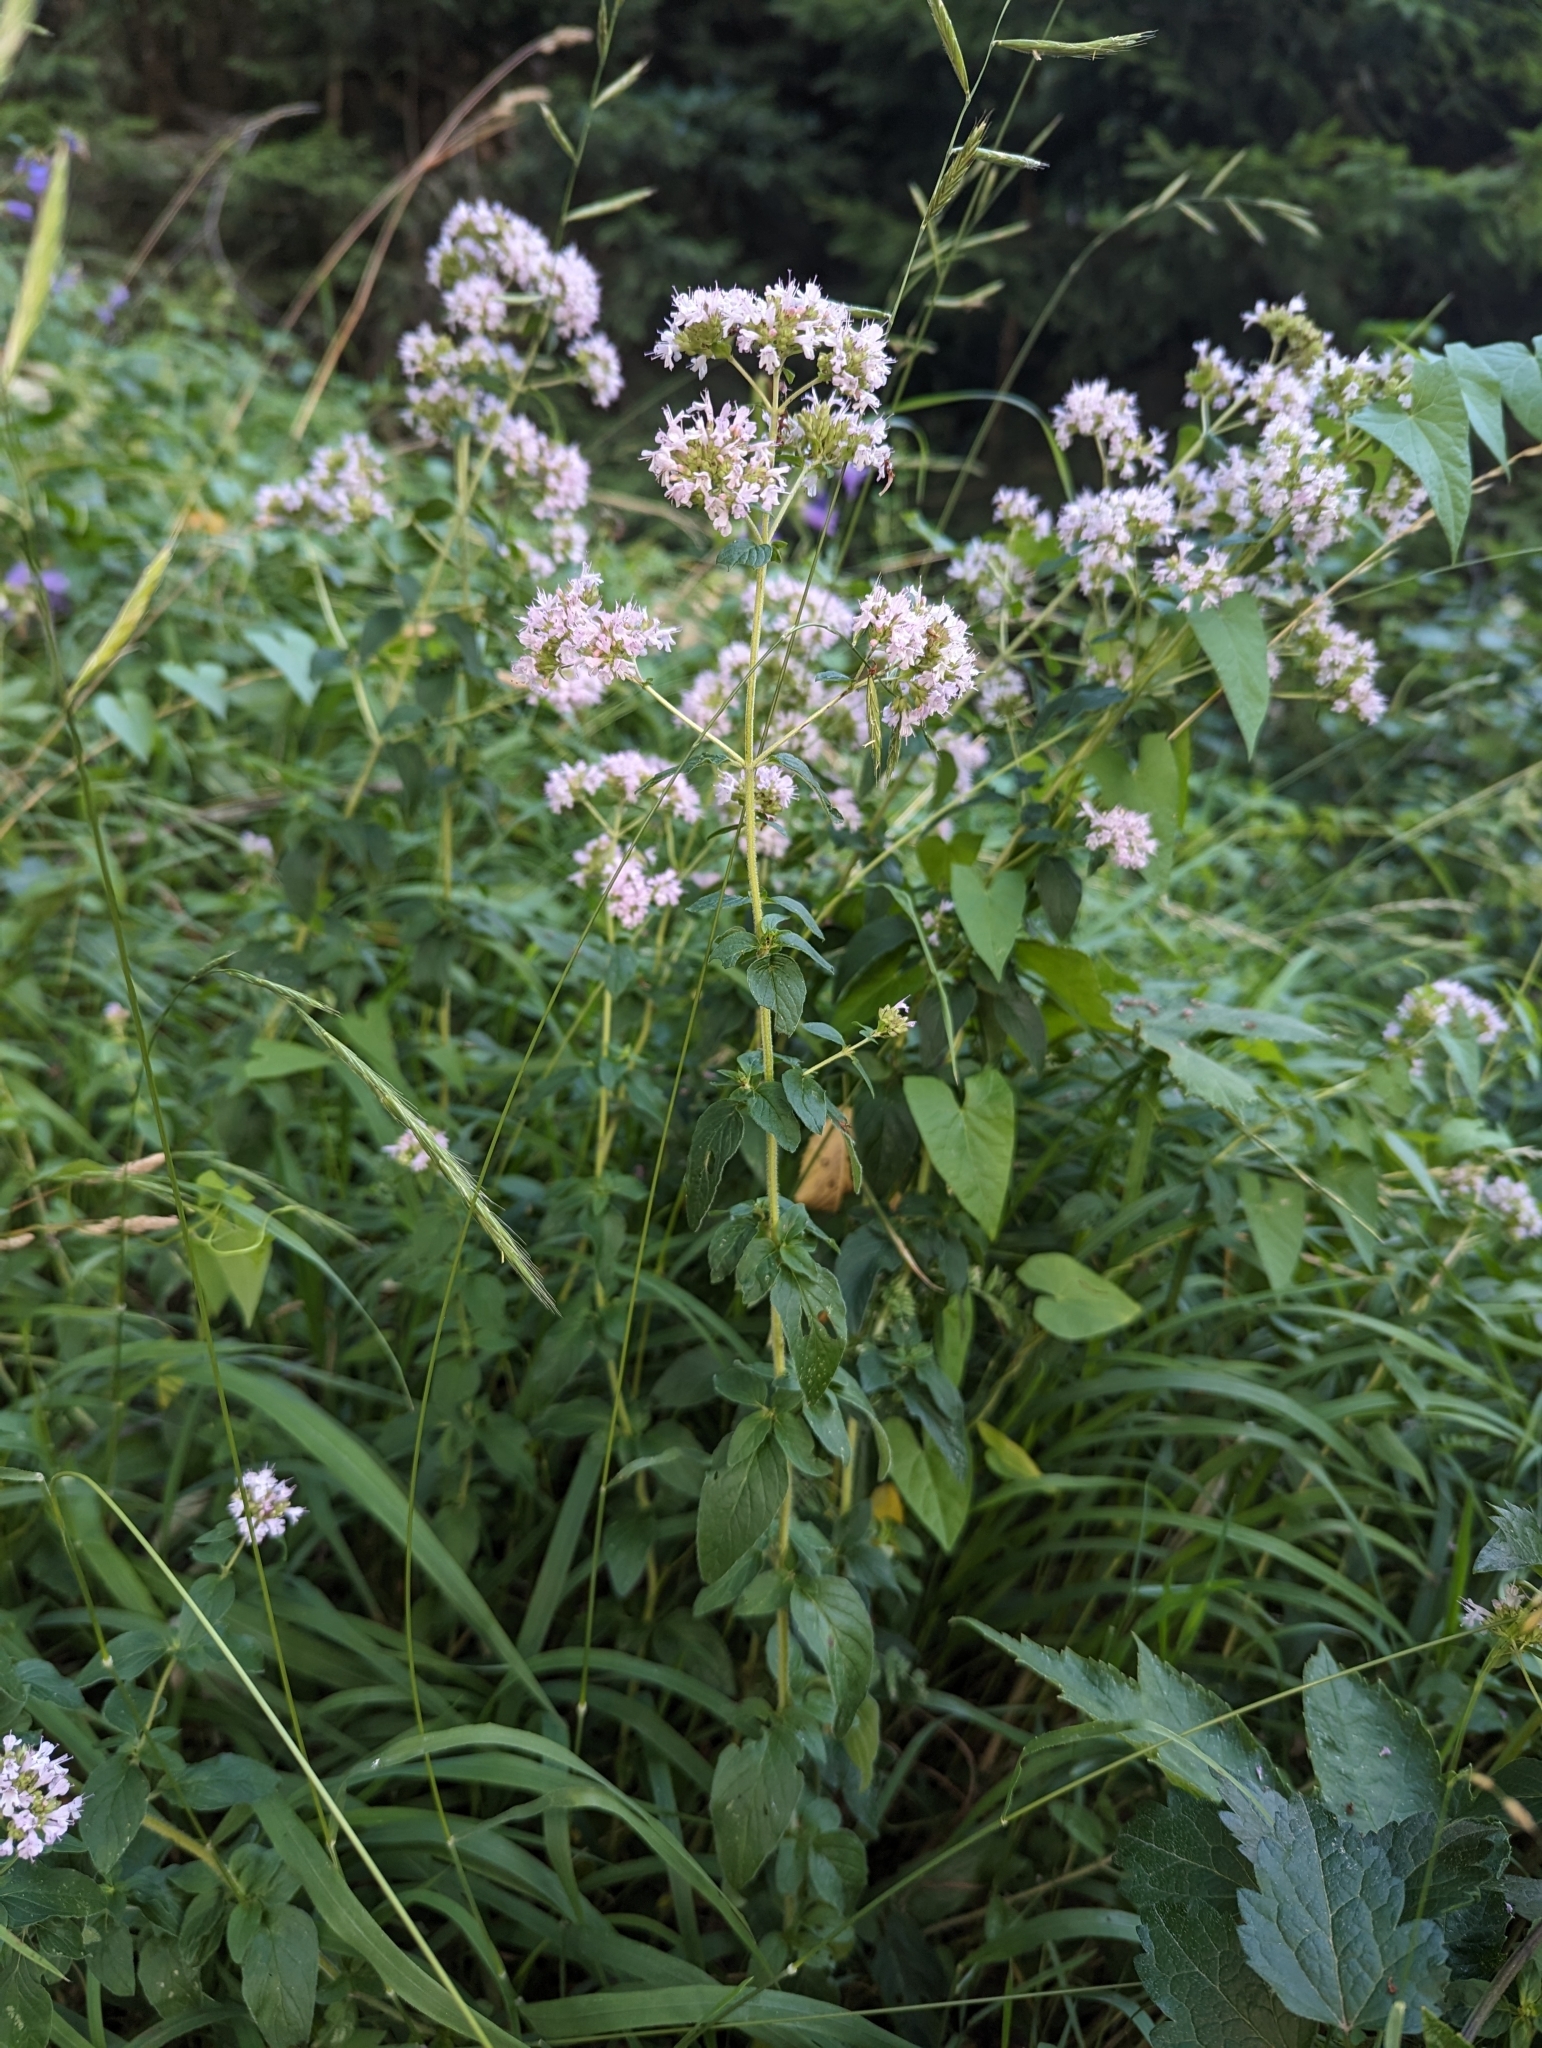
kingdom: Plantae
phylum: Tracheophyta
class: Magnoliopsida
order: Lamiales
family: Lamiaceae
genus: Origanum
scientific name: Origanum vulgare
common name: Wild marjoram
